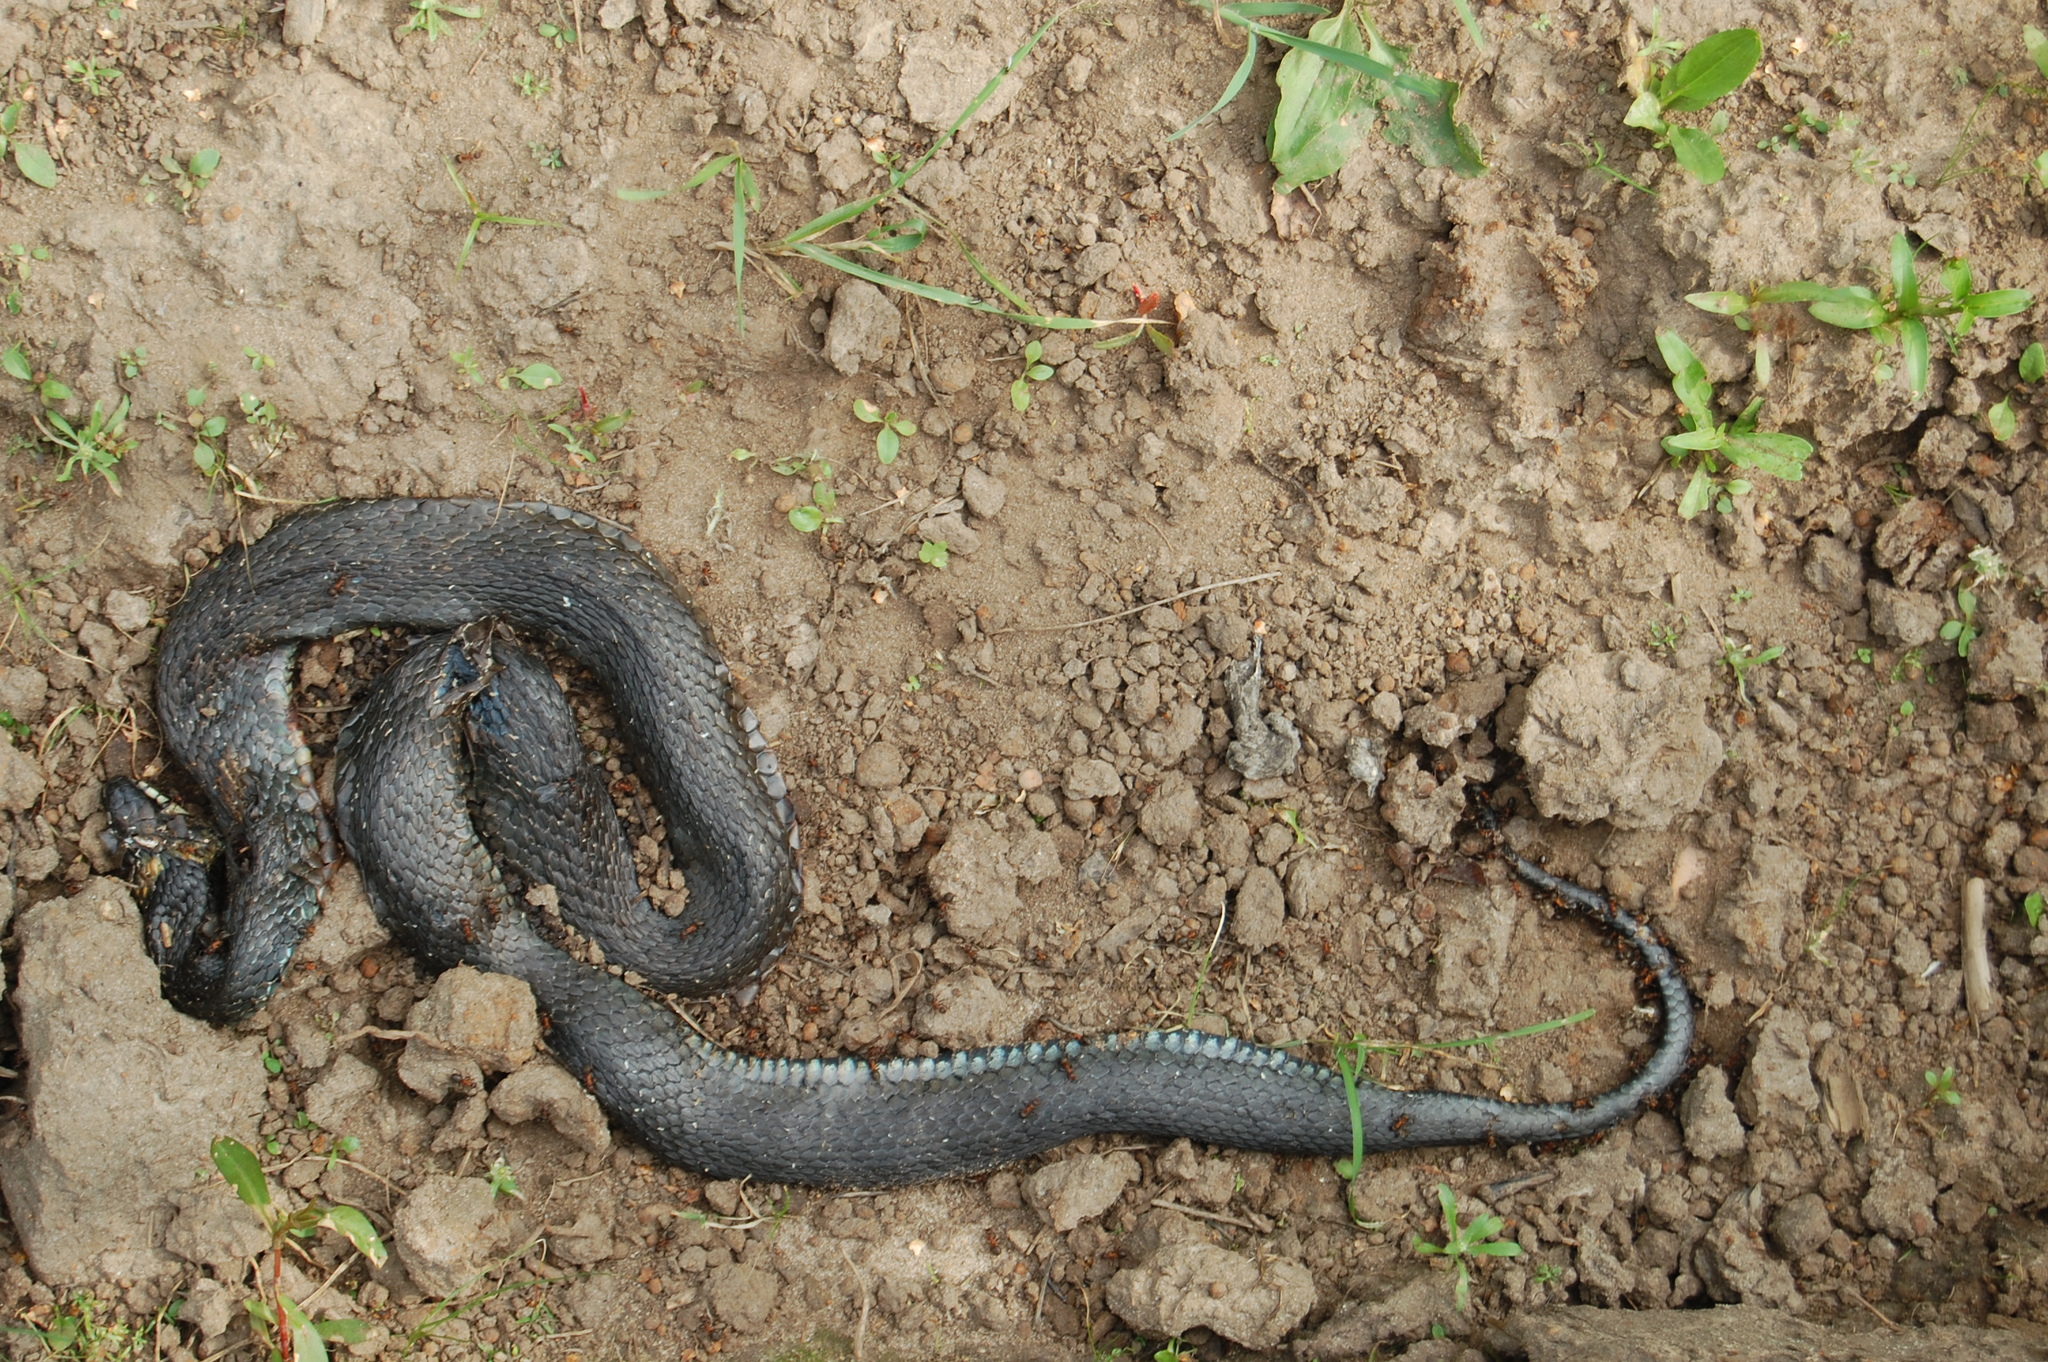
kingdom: Animalia
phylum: Chordata
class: Squamata
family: Colubridae
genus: Natrix
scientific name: Natrix natrix
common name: Grass snake
